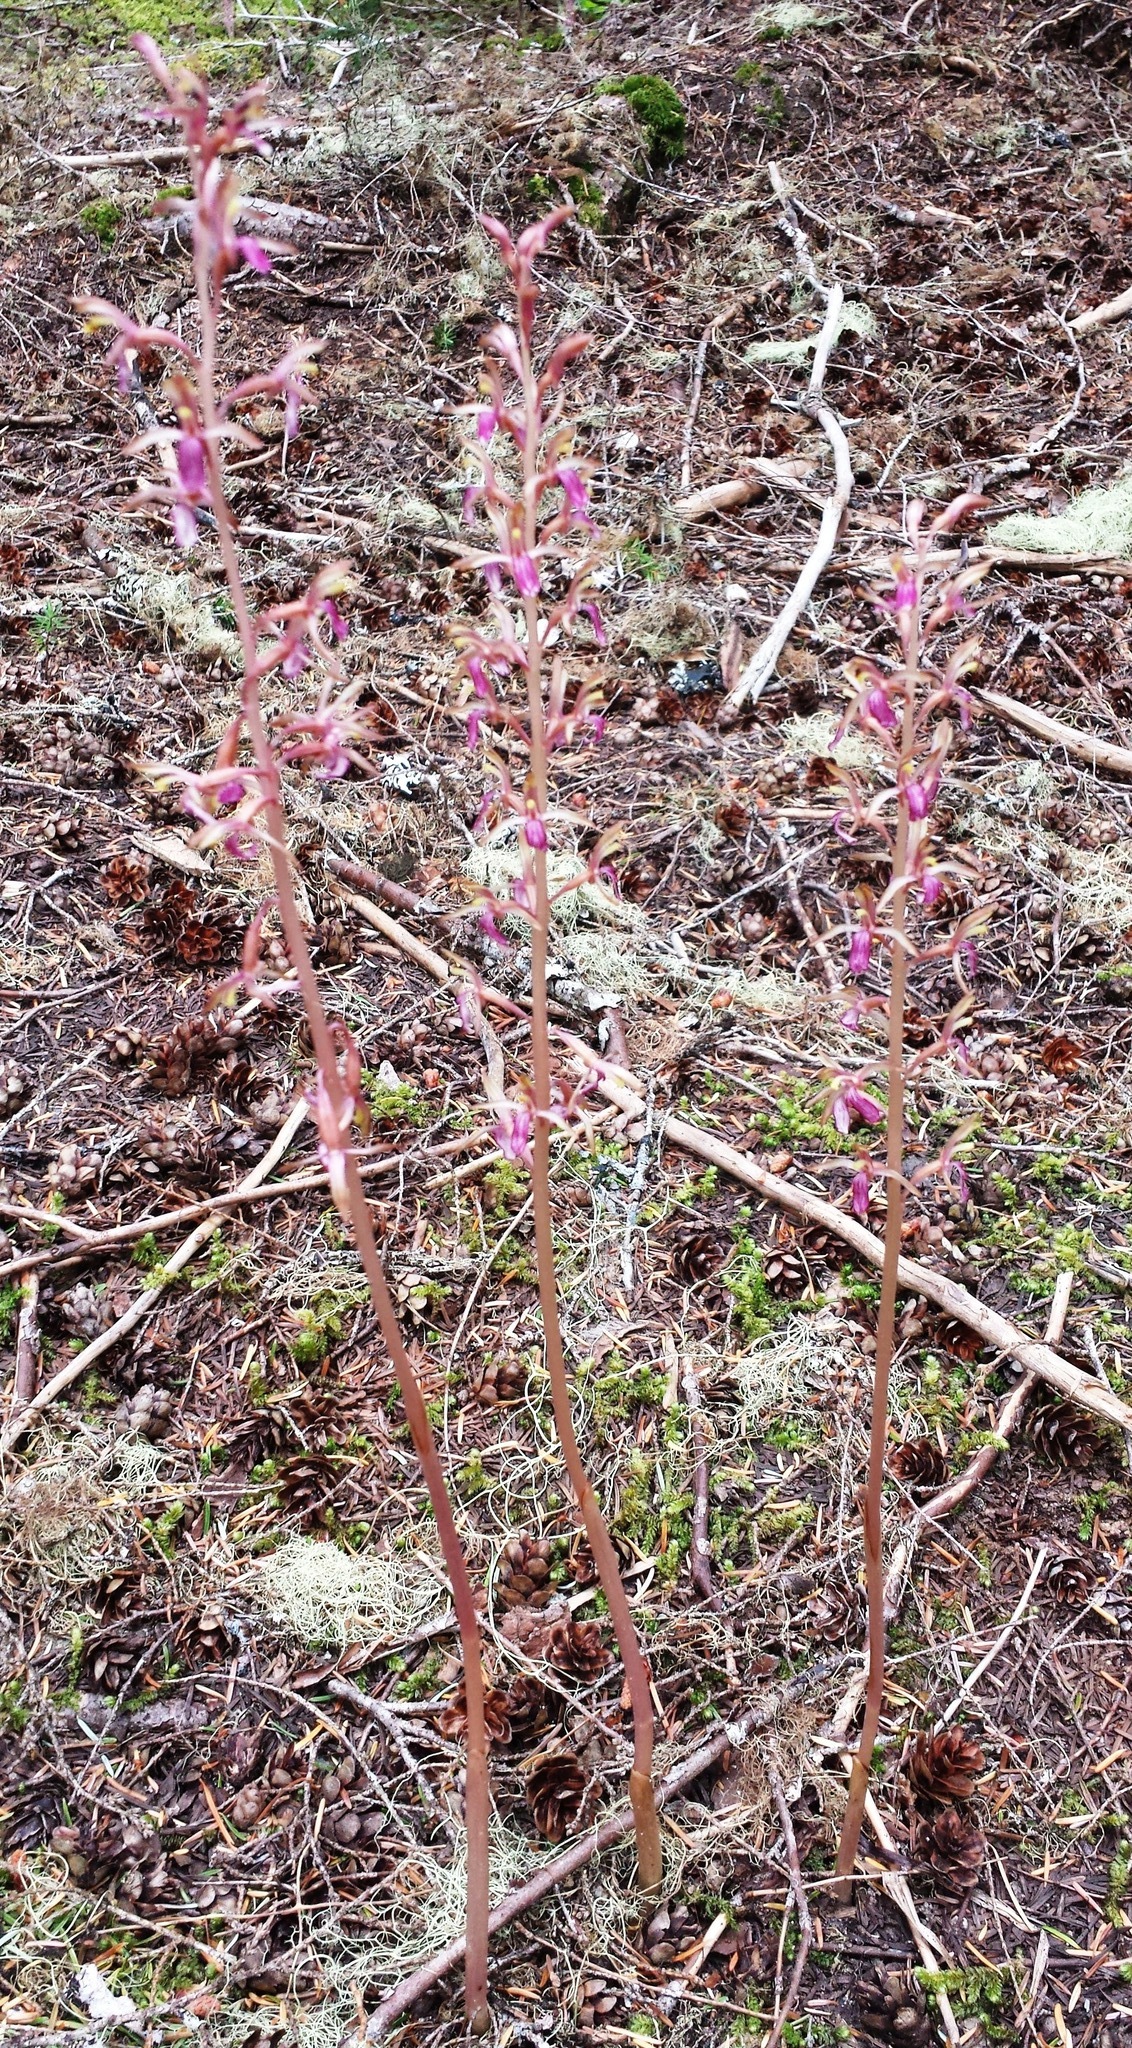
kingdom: Plantae
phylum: Tracheophyta
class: Liliopsida
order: Asparagales
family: Orchidaceae
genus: Corallorhiza
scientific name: Corallorhiza mertensiana
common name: Pacific coralroot
